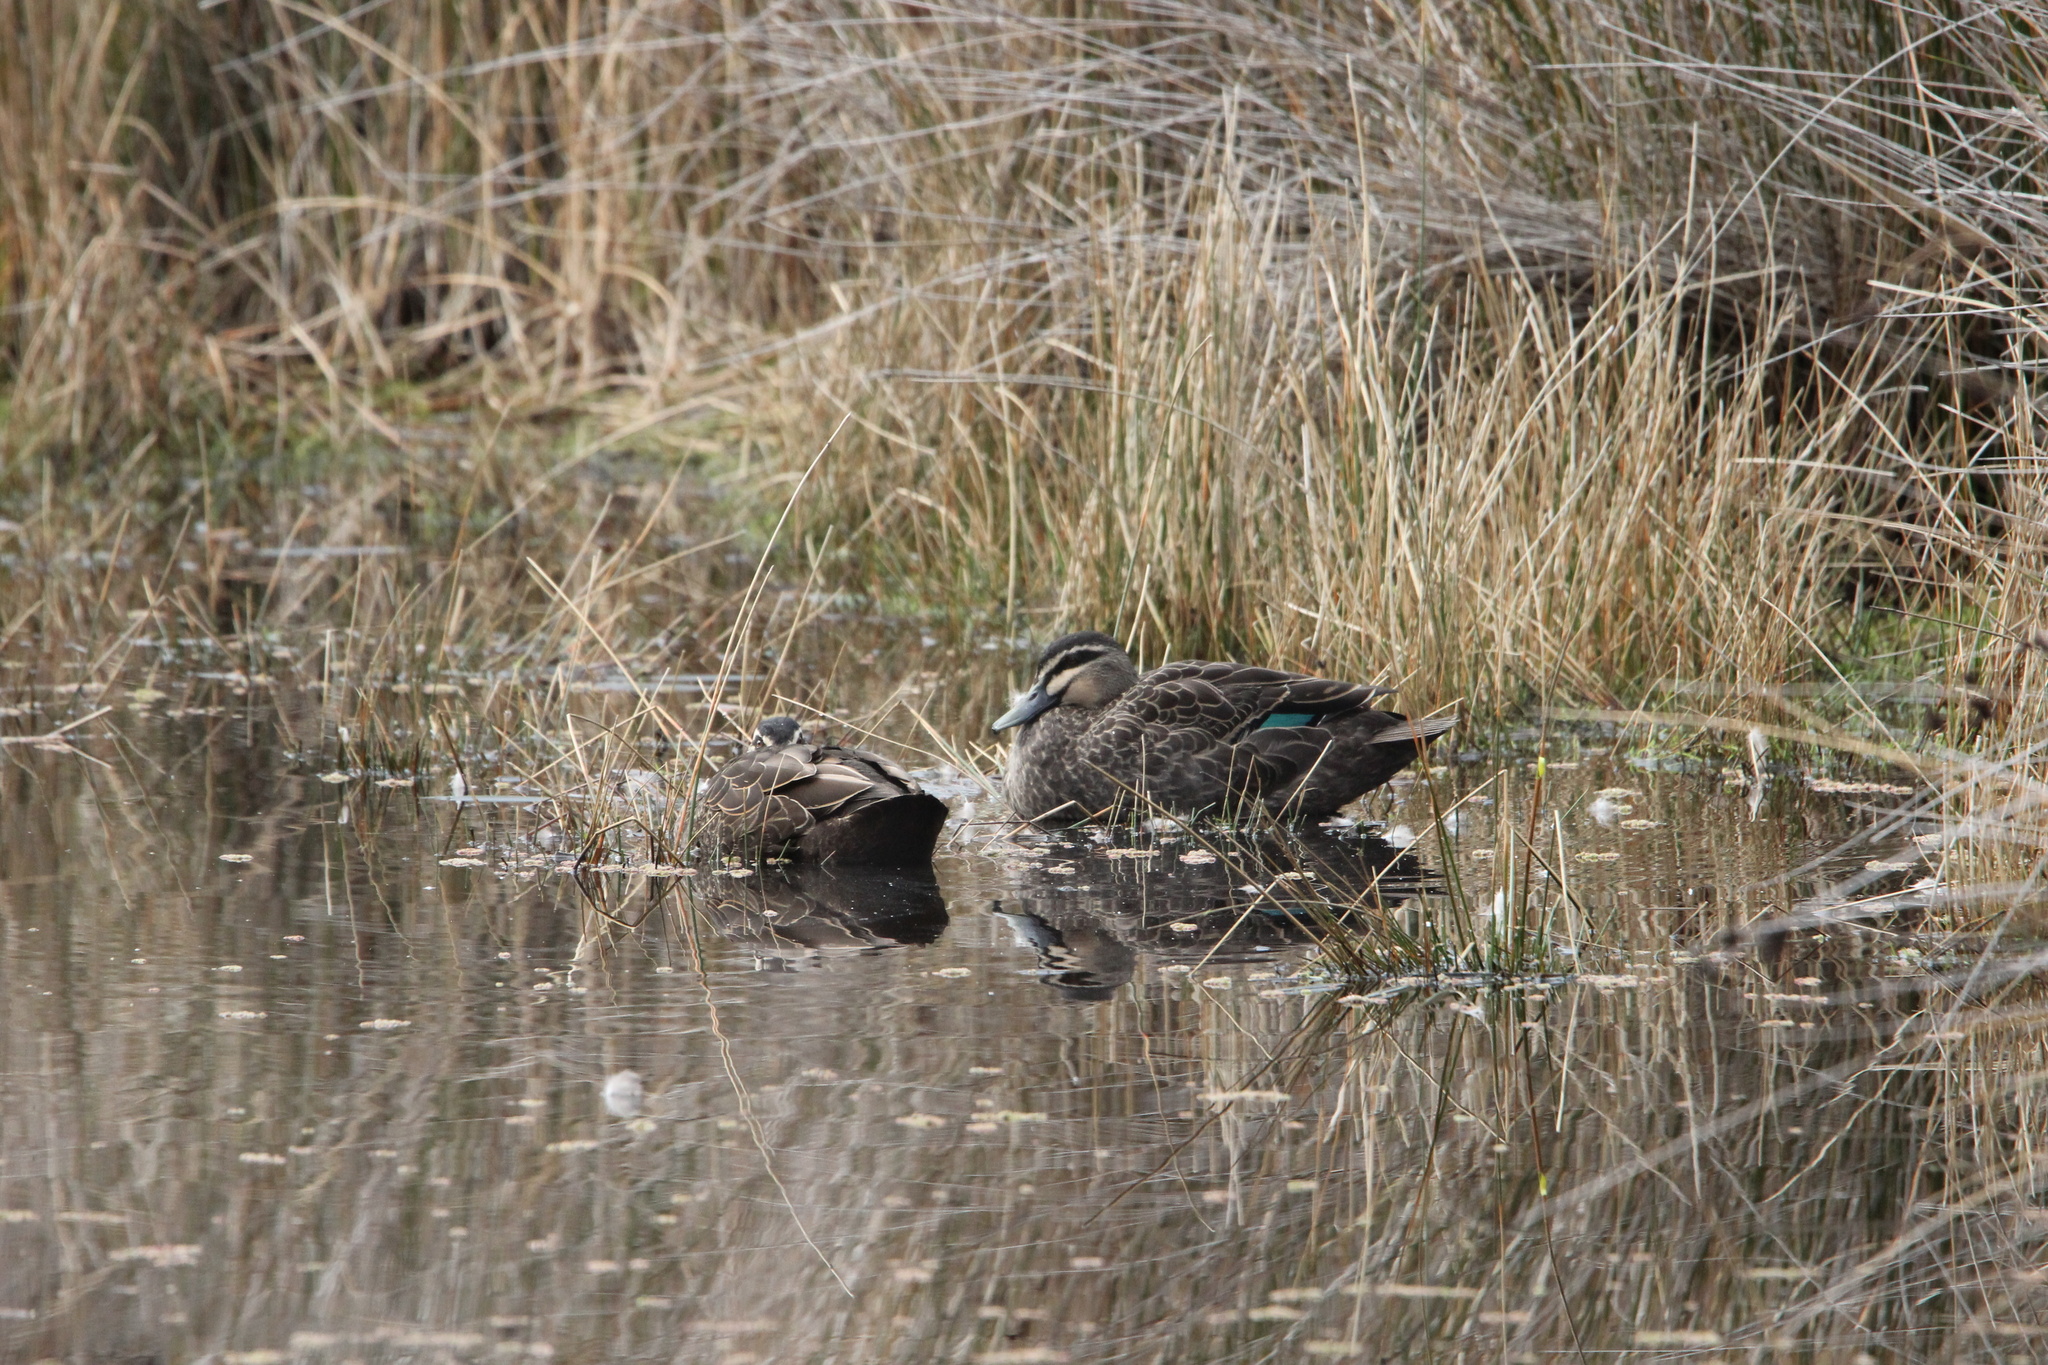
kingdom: Animalia
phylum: Chordata
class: Aves
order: Anseriformes
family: Anatidae
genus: Anas
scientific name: Anas superciliosa
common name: Pacific black duck
